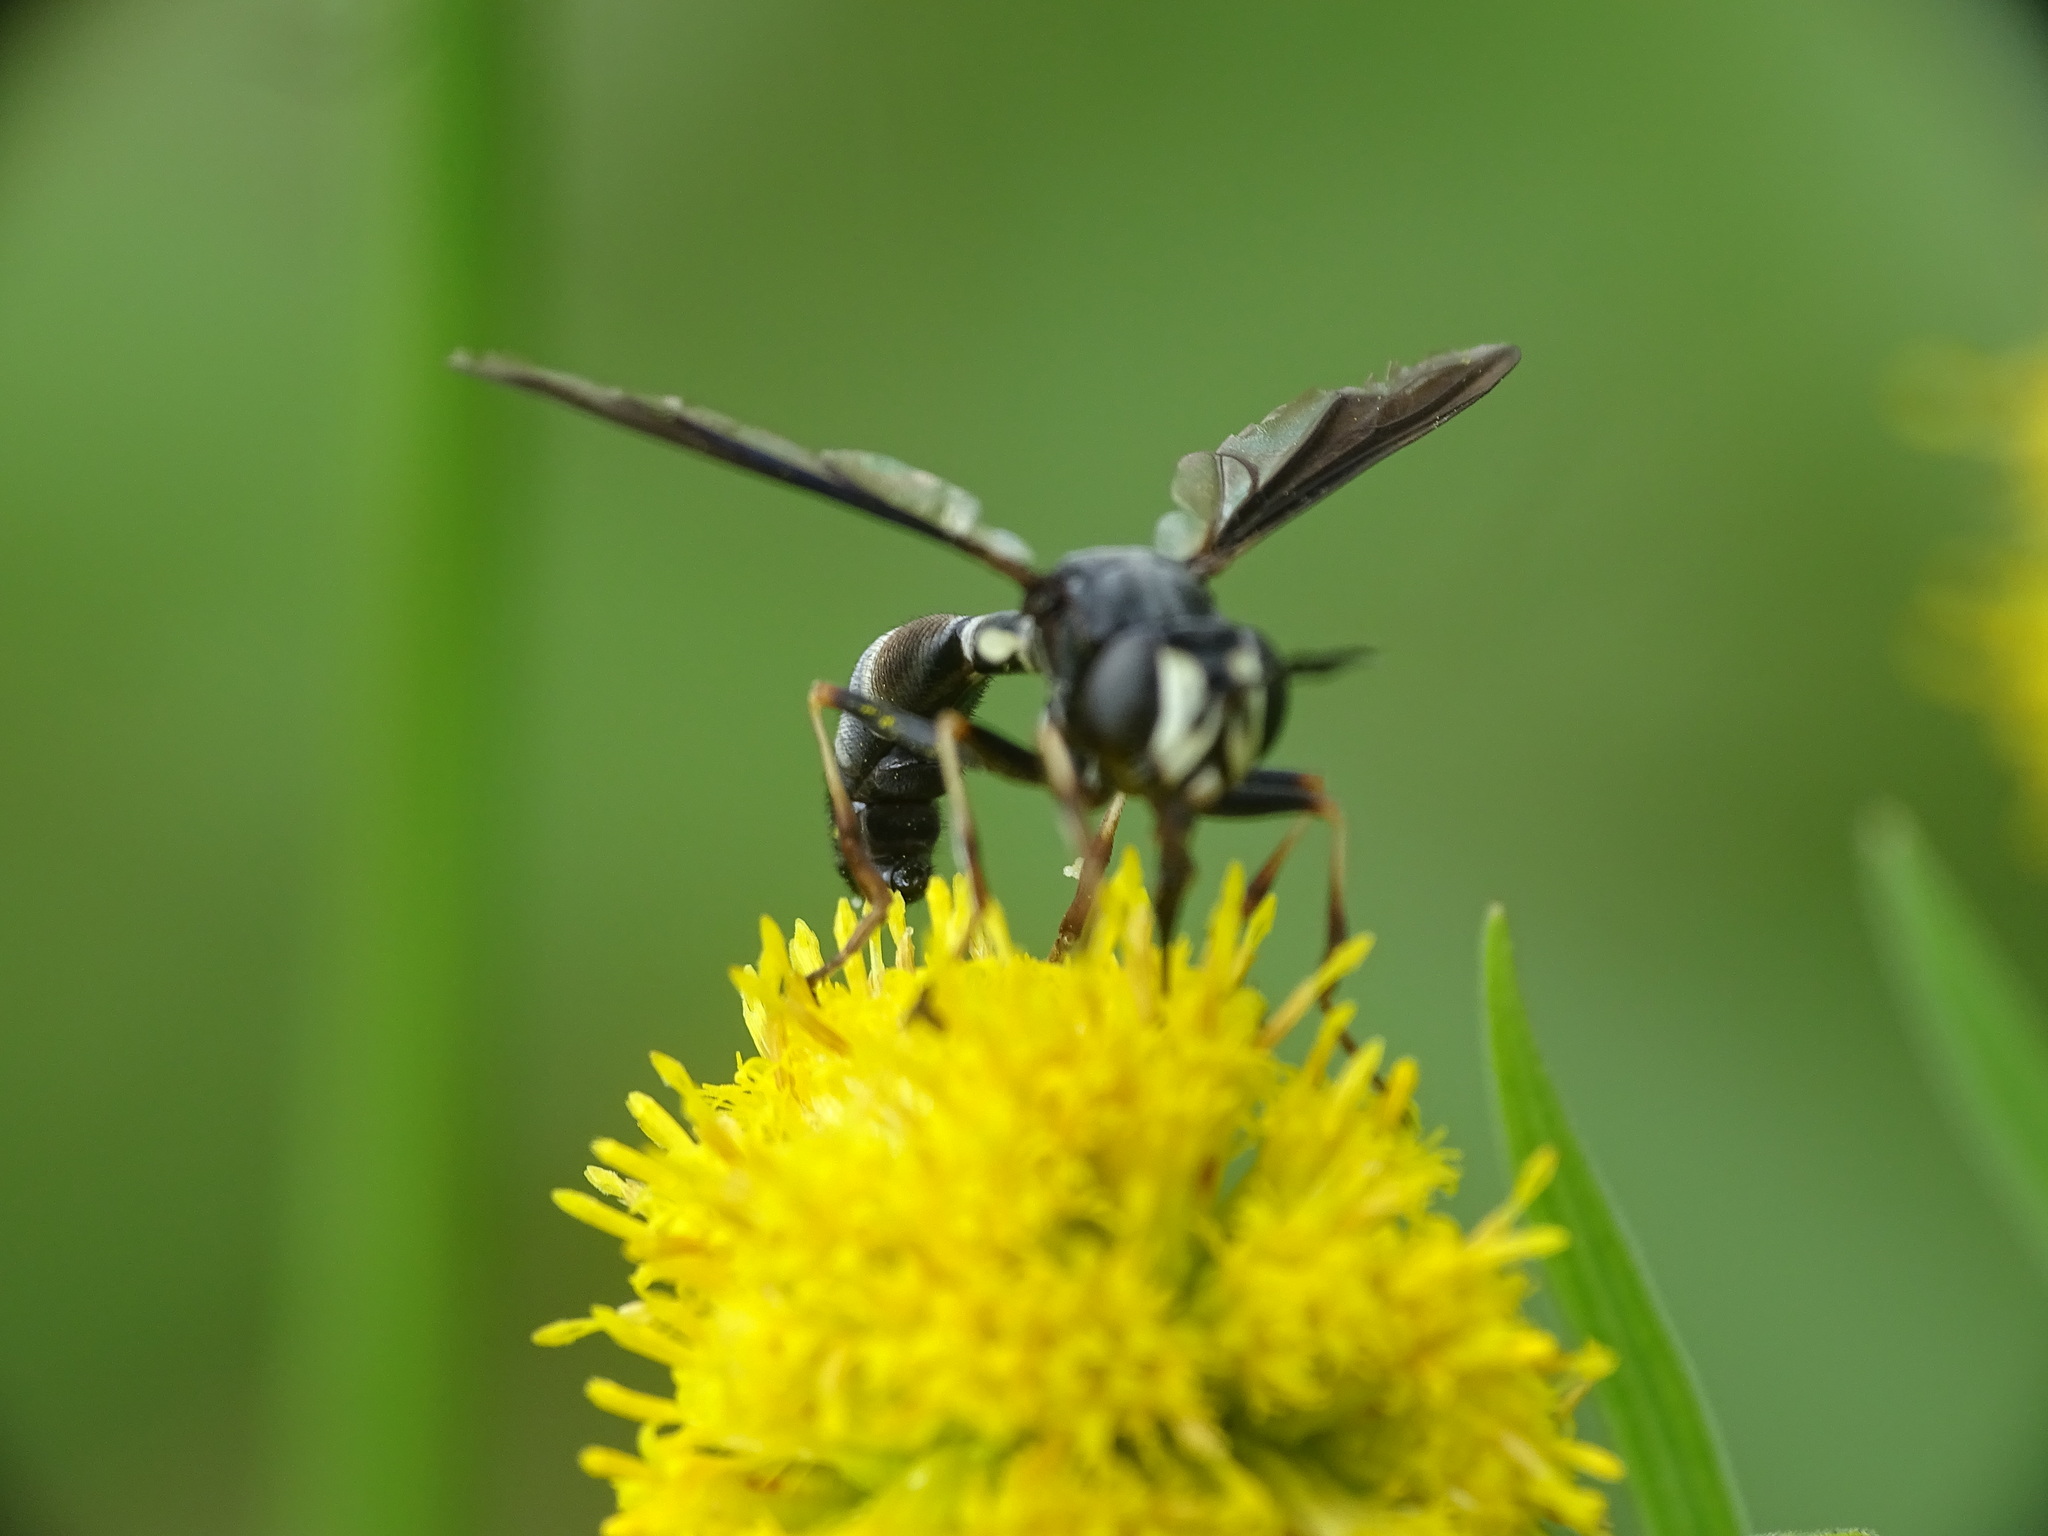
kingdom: Animalia
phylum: Arthropoda
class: Insecta
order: Diptera
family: Conopidae
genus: Physocephala
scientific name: Physocephala tibialis
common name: Common eastern physocephala
